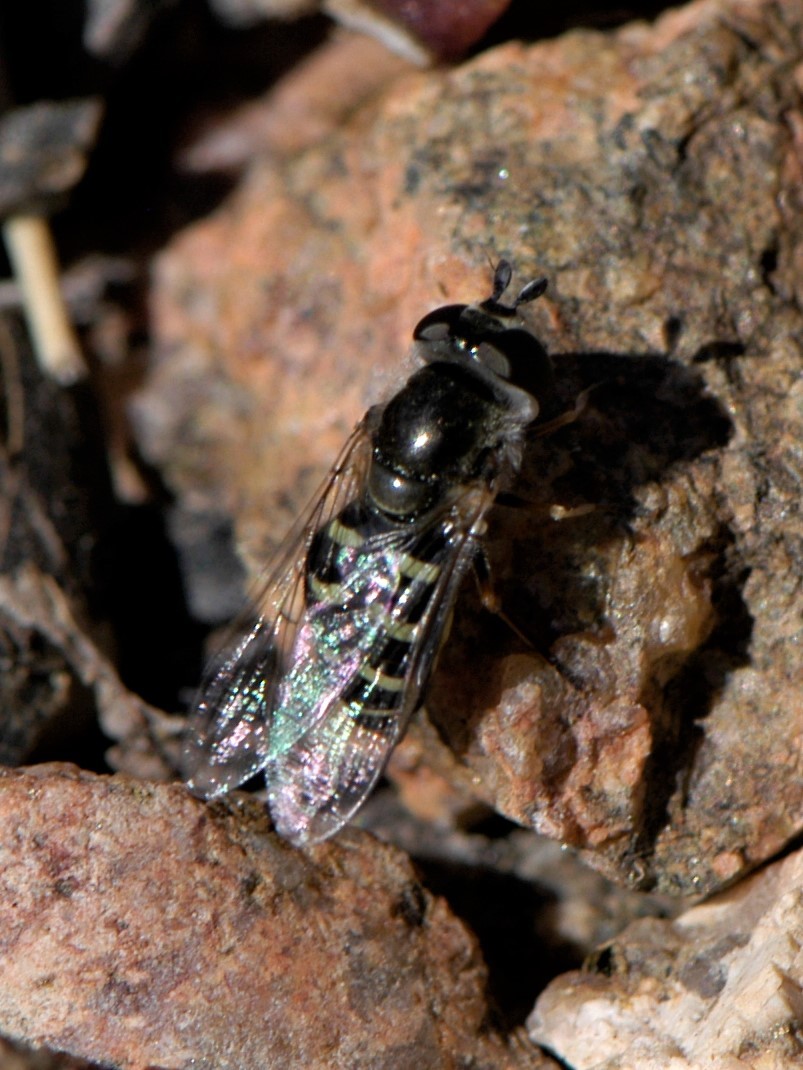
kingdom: Animalia
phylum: Arthropoda
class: Insecta
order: Diptera
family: Syrphidae
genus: Eupeodes
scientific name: Eupeodes volucris
